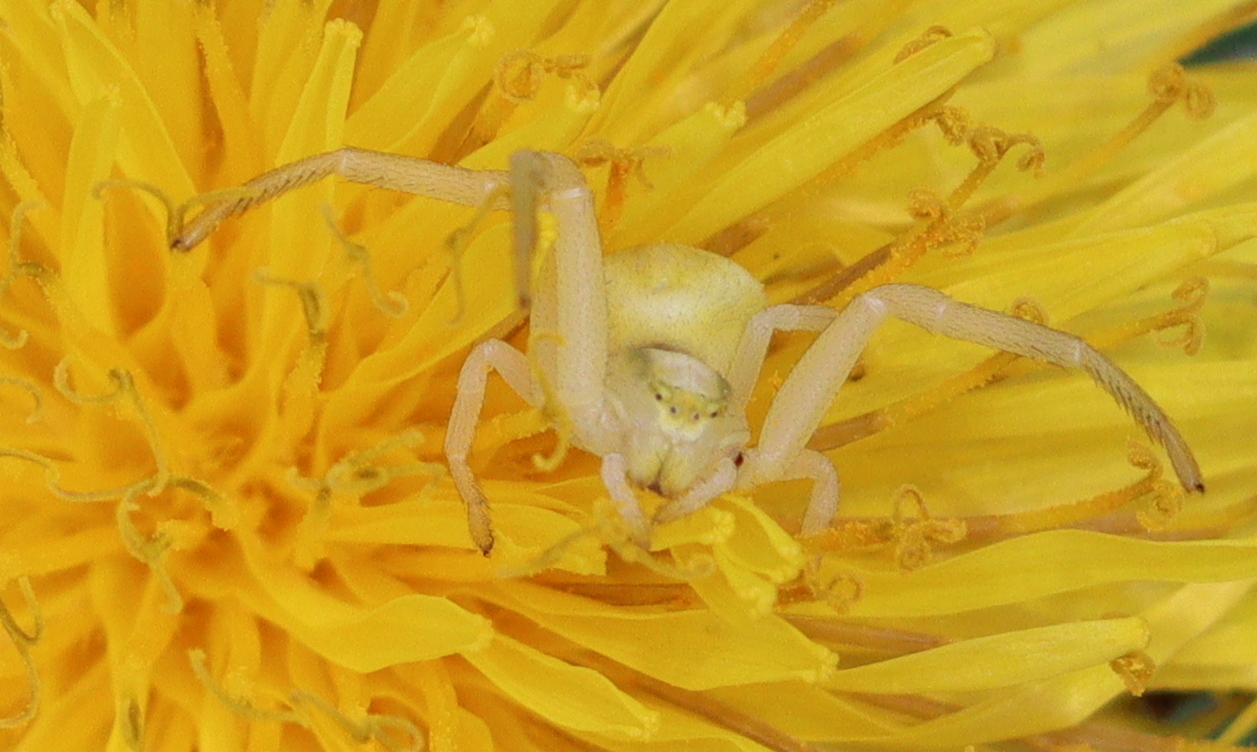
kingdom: Animalia
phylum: Arthropoda
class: Arachnida
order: Araneae
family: Thomisidae
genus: Misumena
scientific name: Misumena vatia
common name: Goldenrod crab spider
